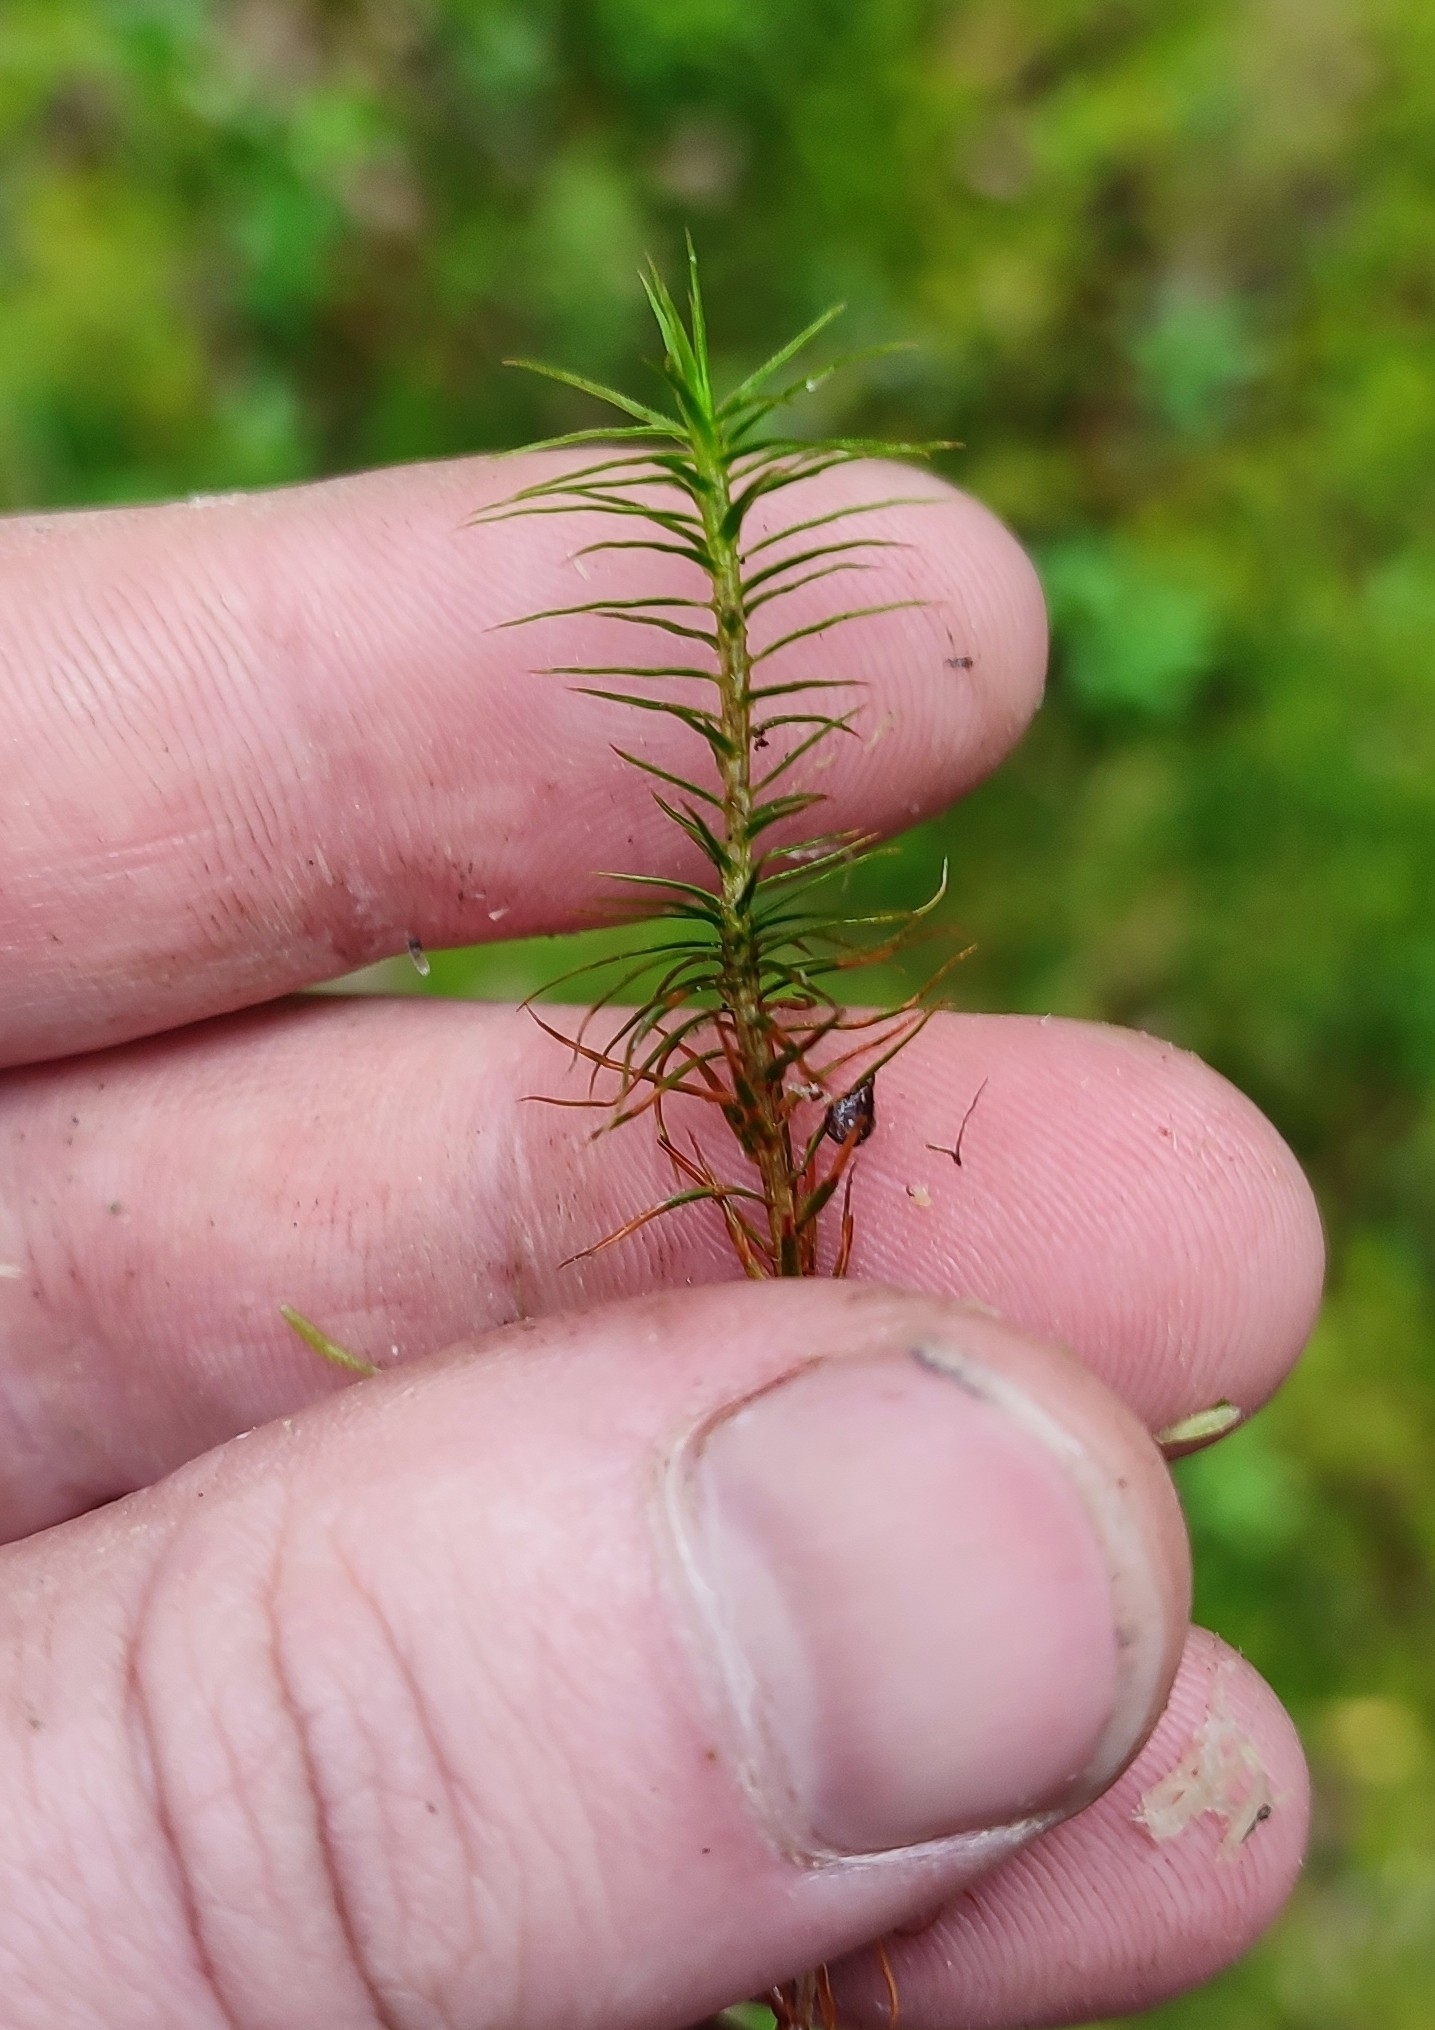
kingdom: Plantae
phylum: Bryophyta
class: Polytrichopsida
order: Polytrichales
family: Polytrichaceae
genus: Polytrichum
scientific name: Polytrichum commune
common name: Common haircap
